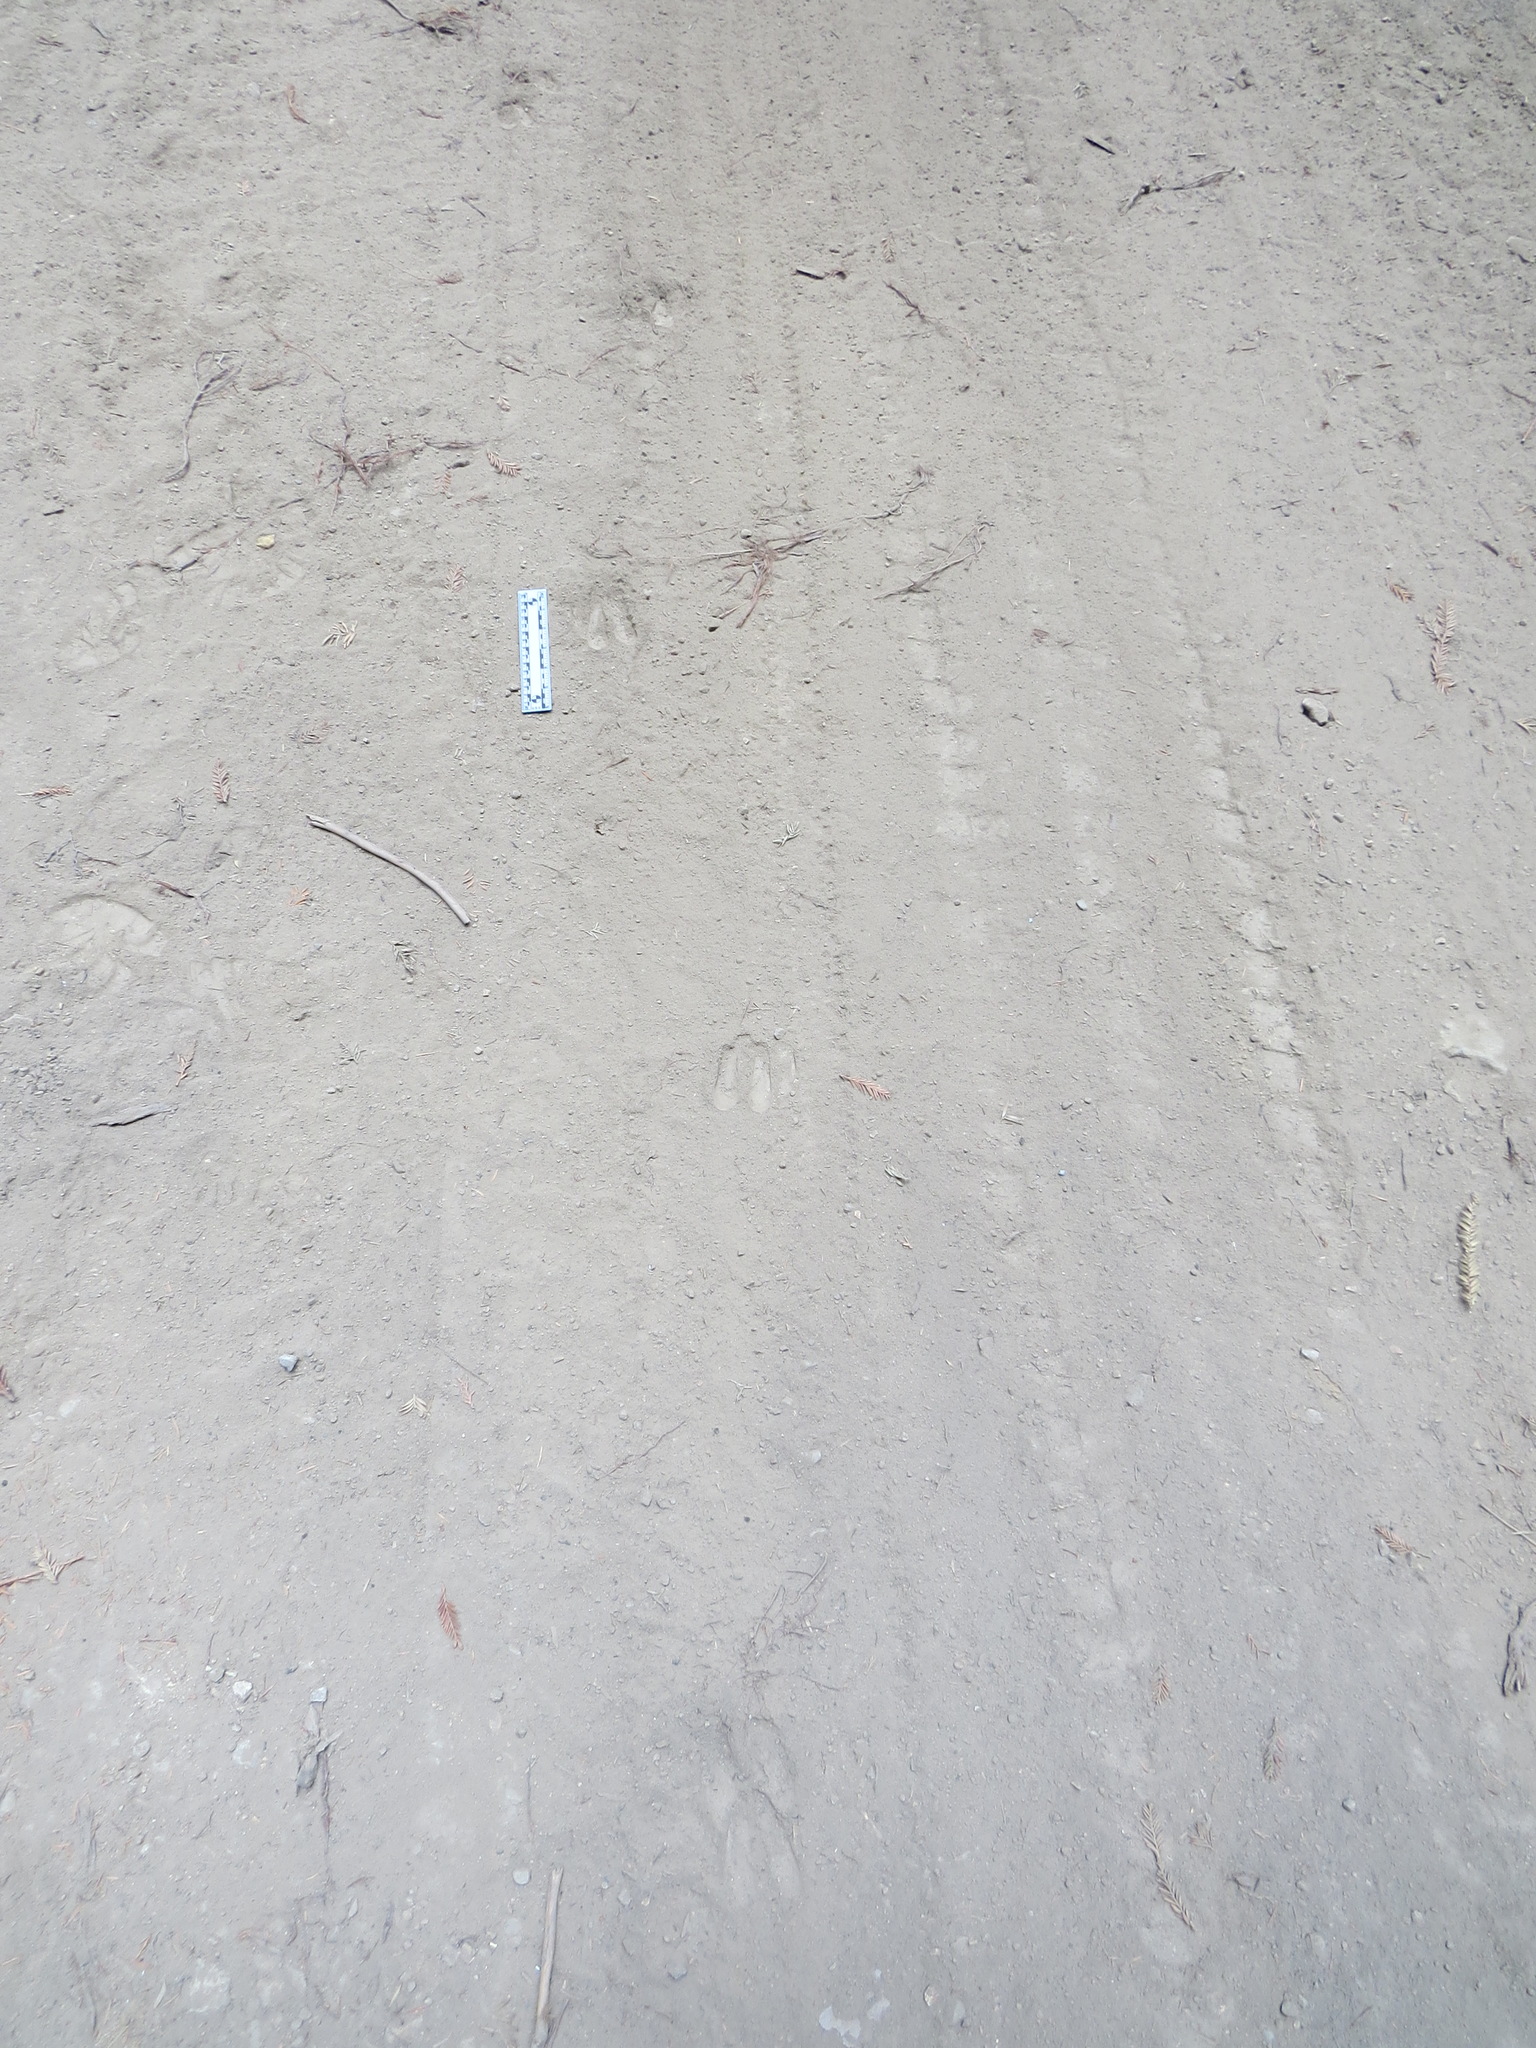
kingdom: Animalia
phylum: Chordata
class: Mammalia
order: Artiodactyla
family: Cervidae
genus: Odocoileus
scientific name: Odocoileus hemionus
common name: Mule deer
